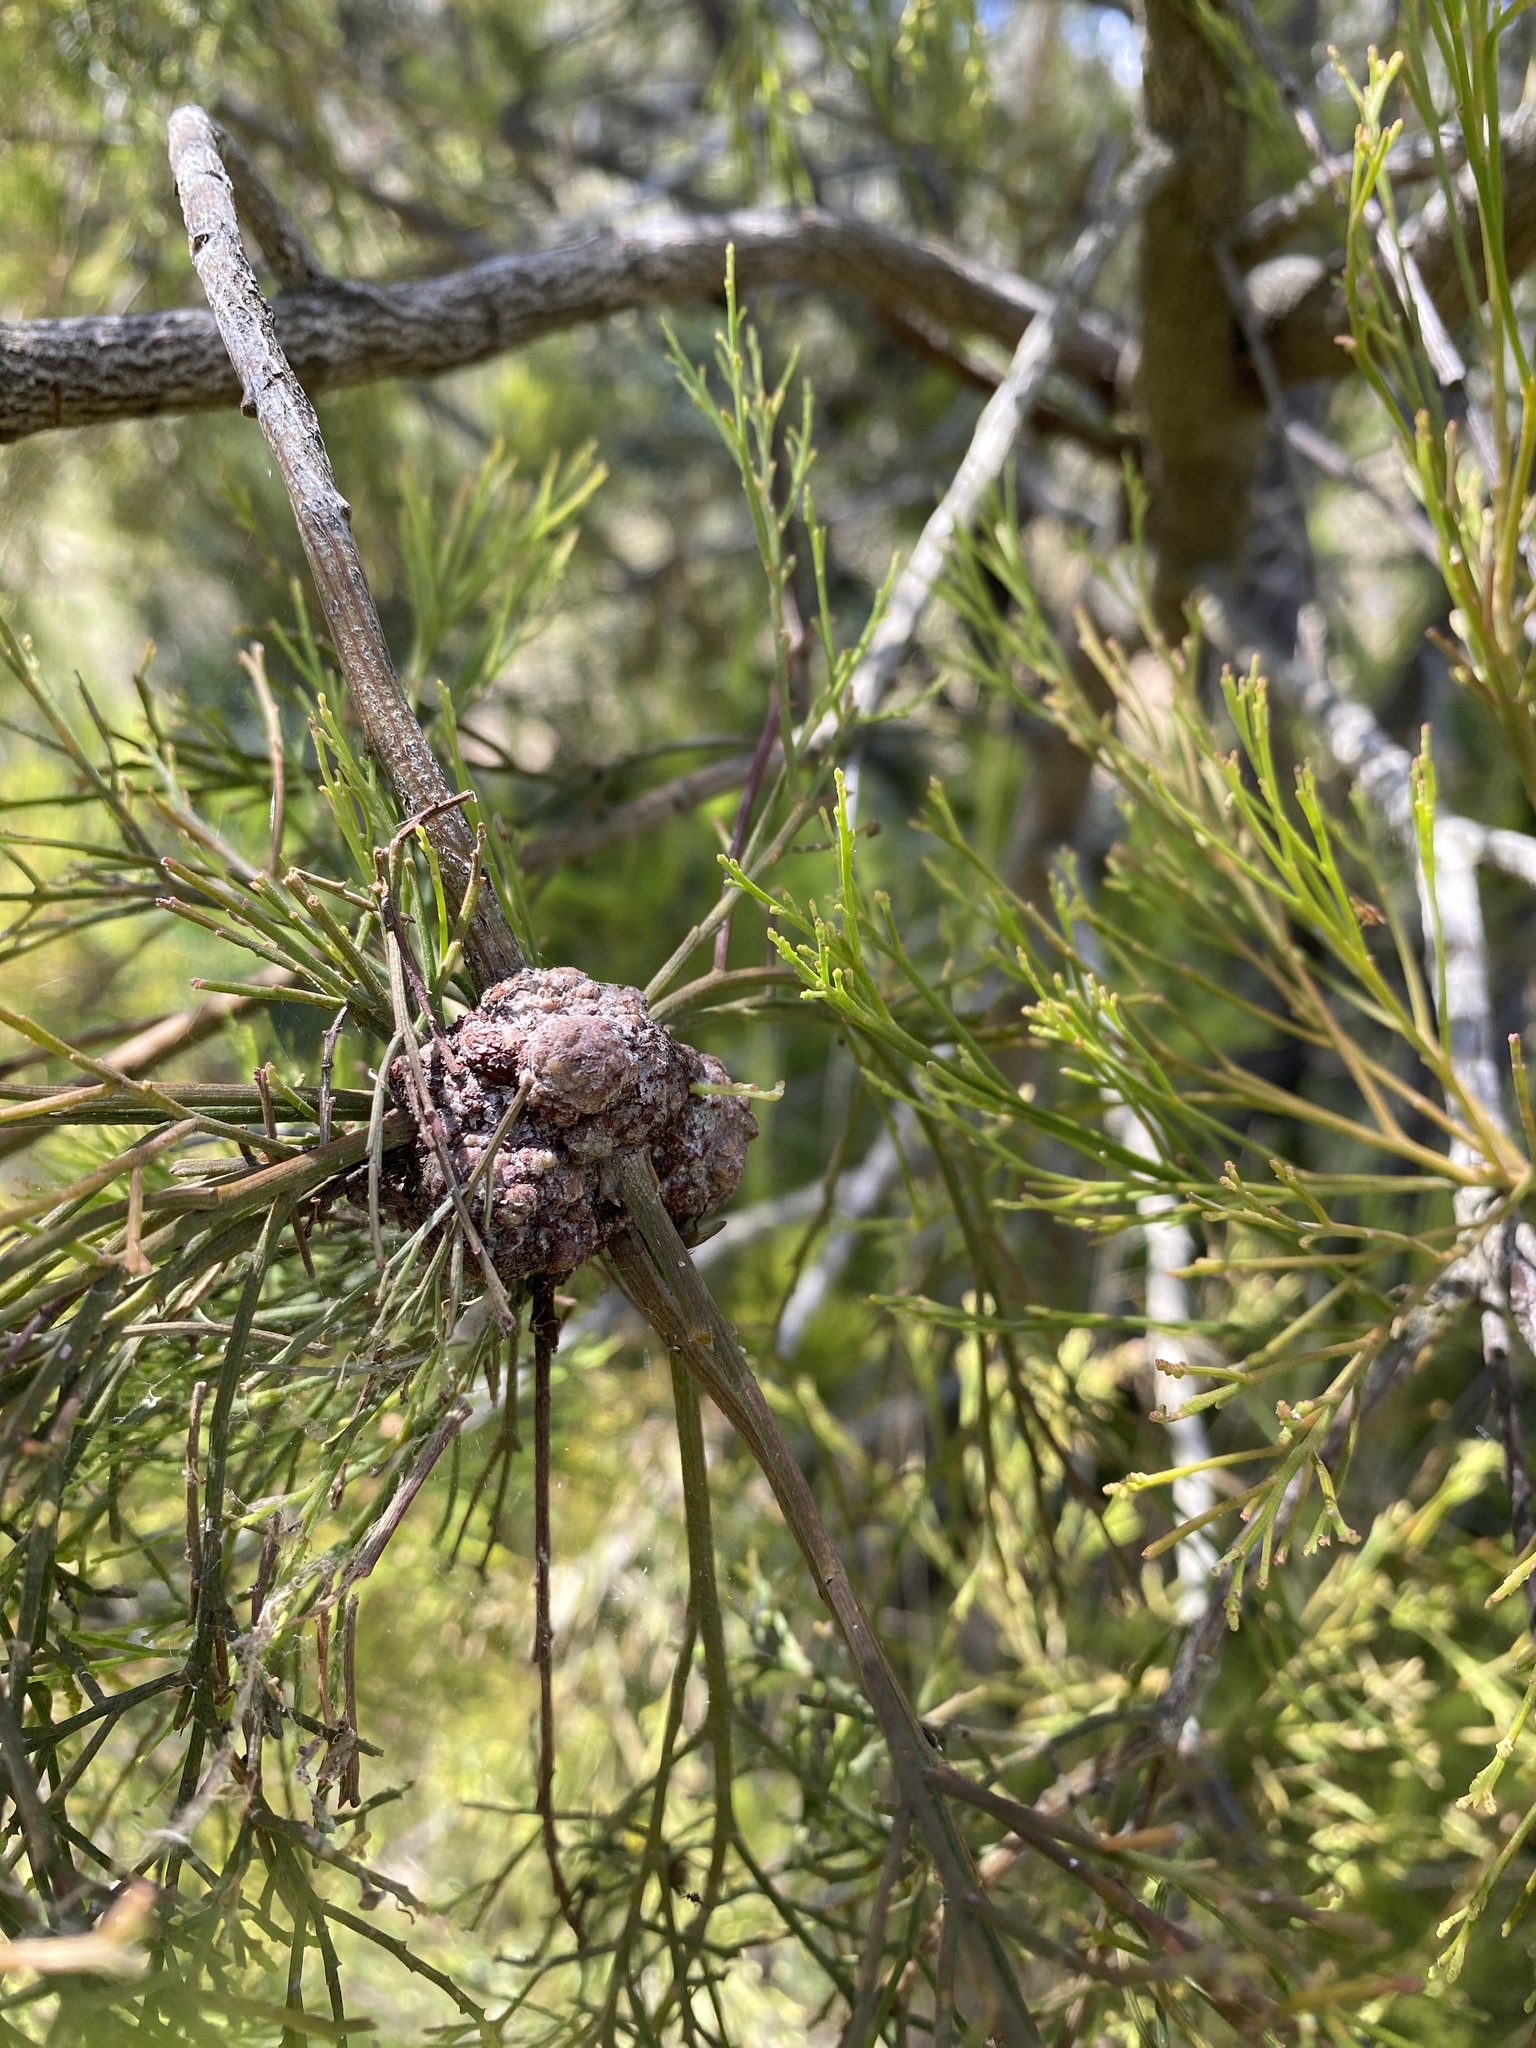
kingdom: Plantae
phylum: Tracheophyta
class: Magnoliopsida
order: Santalales
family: Santalaceae
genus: Exocarpos
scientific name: Exocarpos cupressiformis
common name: Cherry ballart
